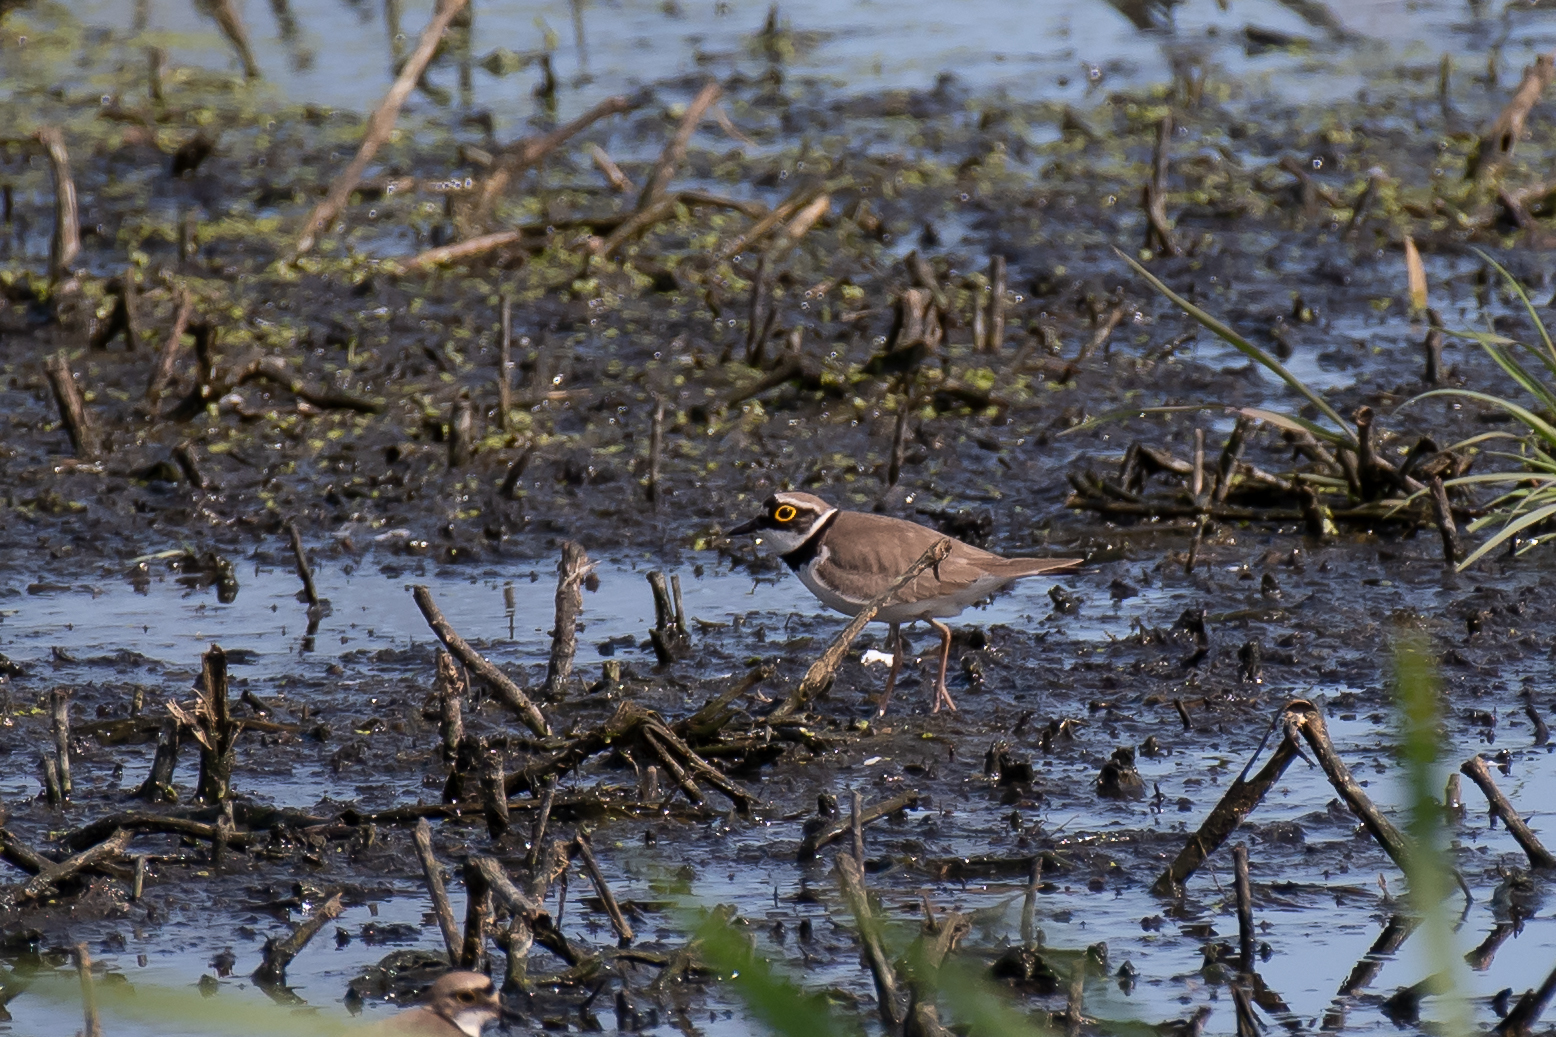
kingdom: Animalia
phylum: Chordata
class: Aves
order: Charadriiformes
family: Charadriidae
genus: Charadrius
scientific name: Charadrius dubius
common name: Little ringed plover
